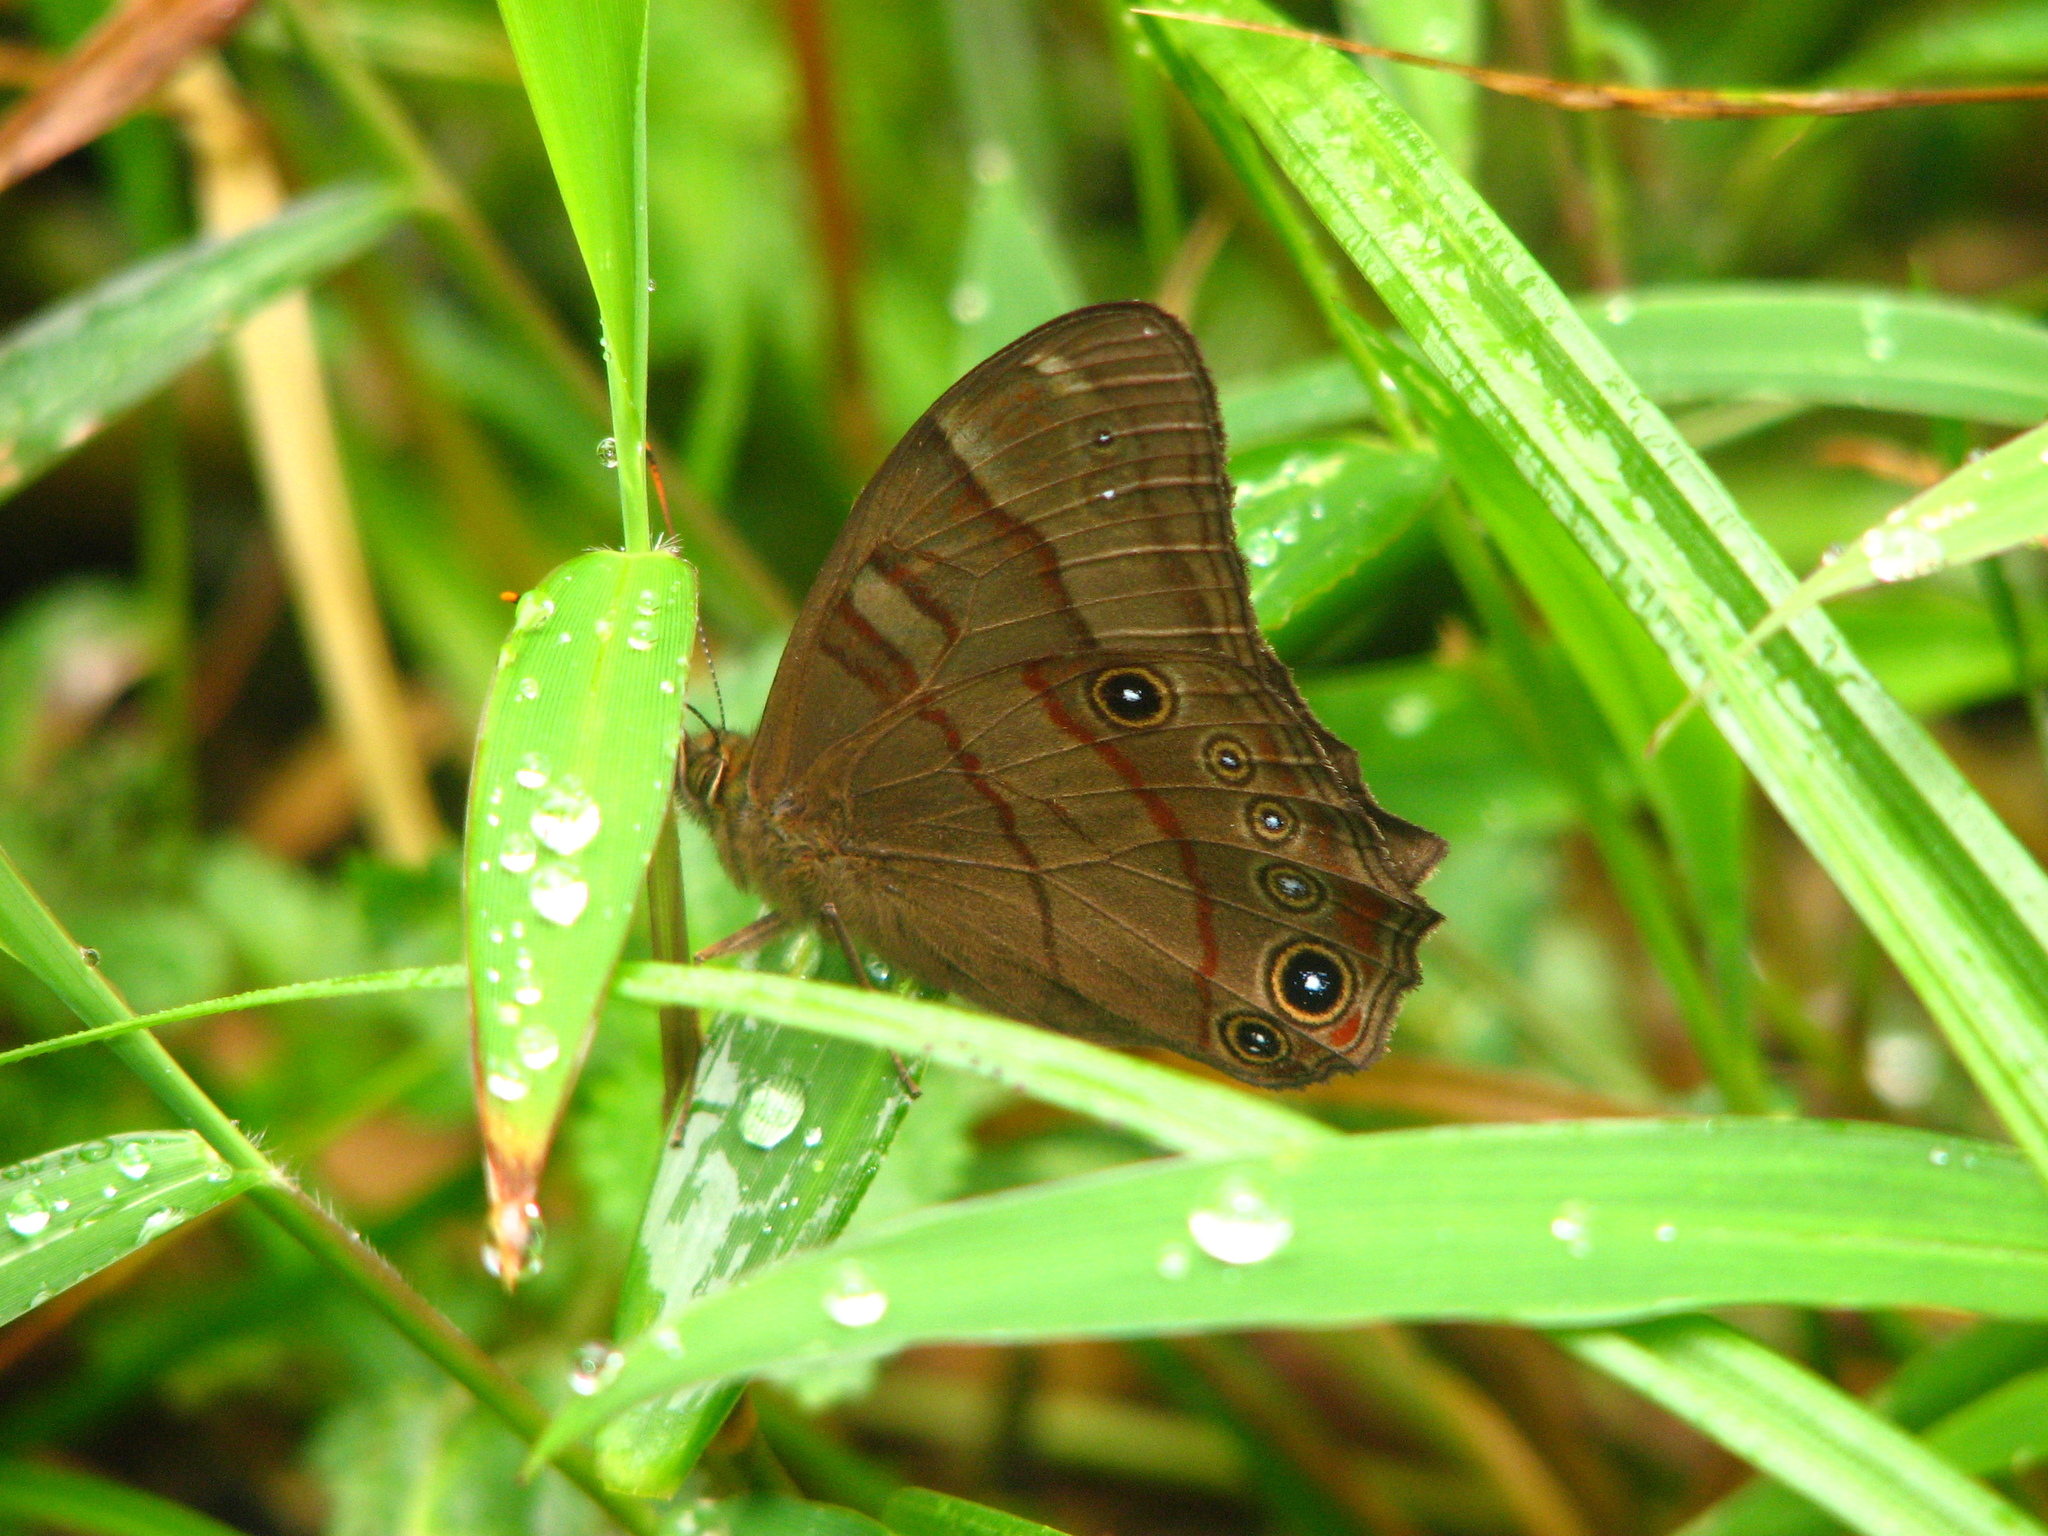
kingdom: Animalia
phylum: Arthropoda
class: Insecta
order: Lepidoptera
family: Nymphalidae
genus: Lethe
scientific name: Lethe serbonis
